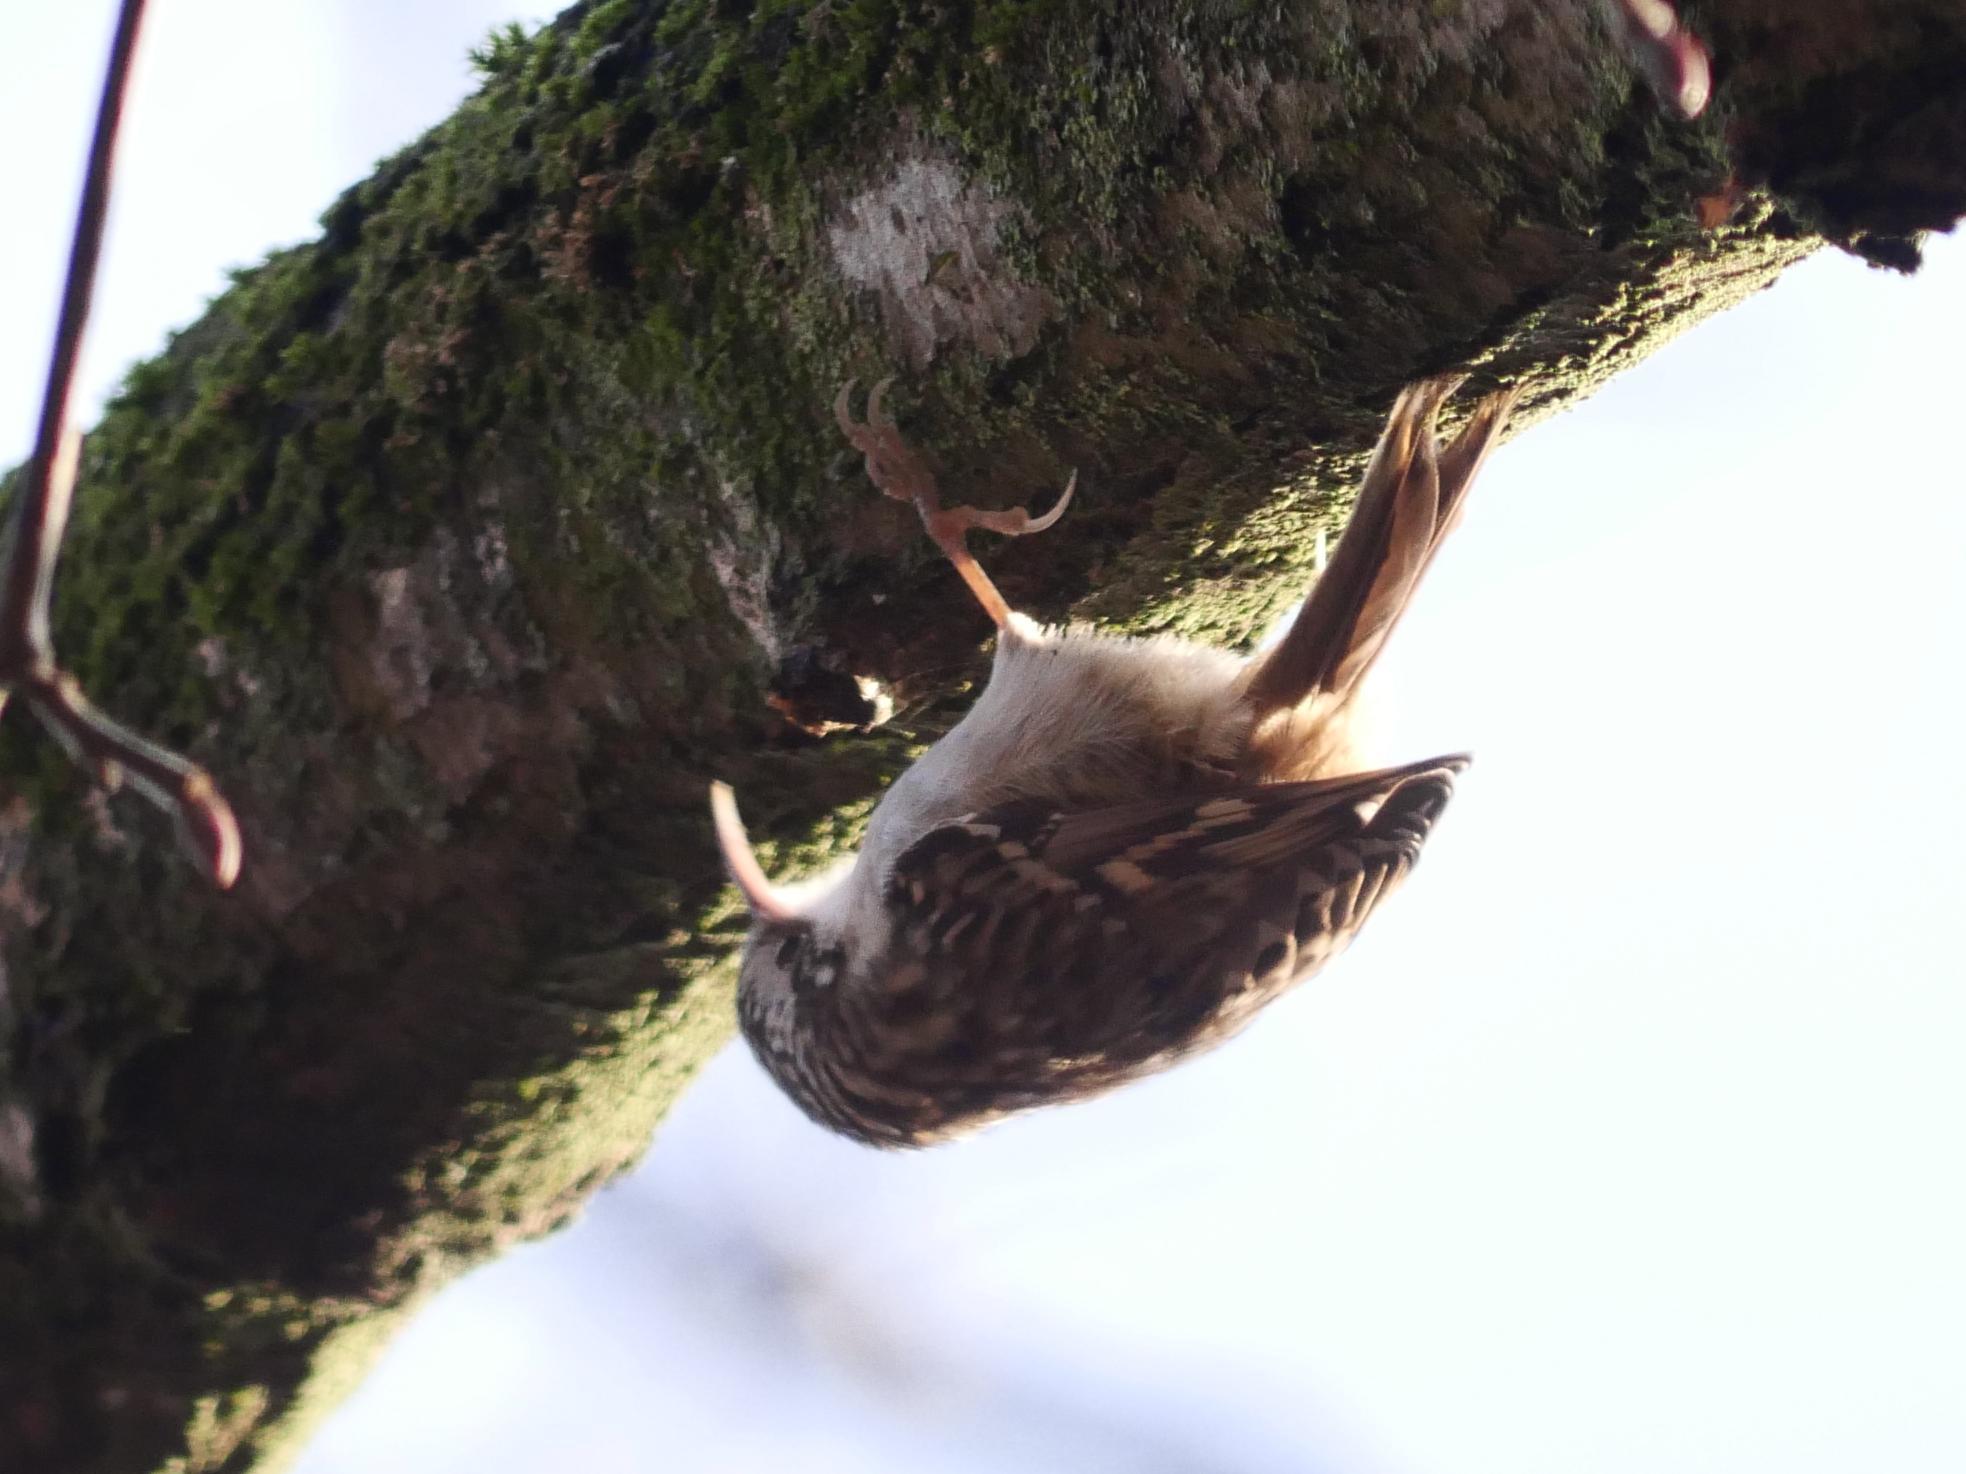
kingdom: Animalia
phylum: Chordata
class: Aves
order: Passeriformes
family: Certhiidae
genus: Certhia
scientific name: Certhia brachydactyla
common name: Short-toed treecreeper
